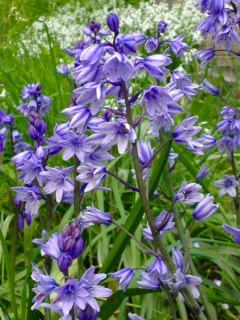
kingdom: Plantae
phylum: Tracheophyta
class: Liliopsida
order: Asparagales
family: Asparagaceae
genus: Hyacinthoides
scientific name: Hyacinthoides hispanica
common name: Spanish bluebell
